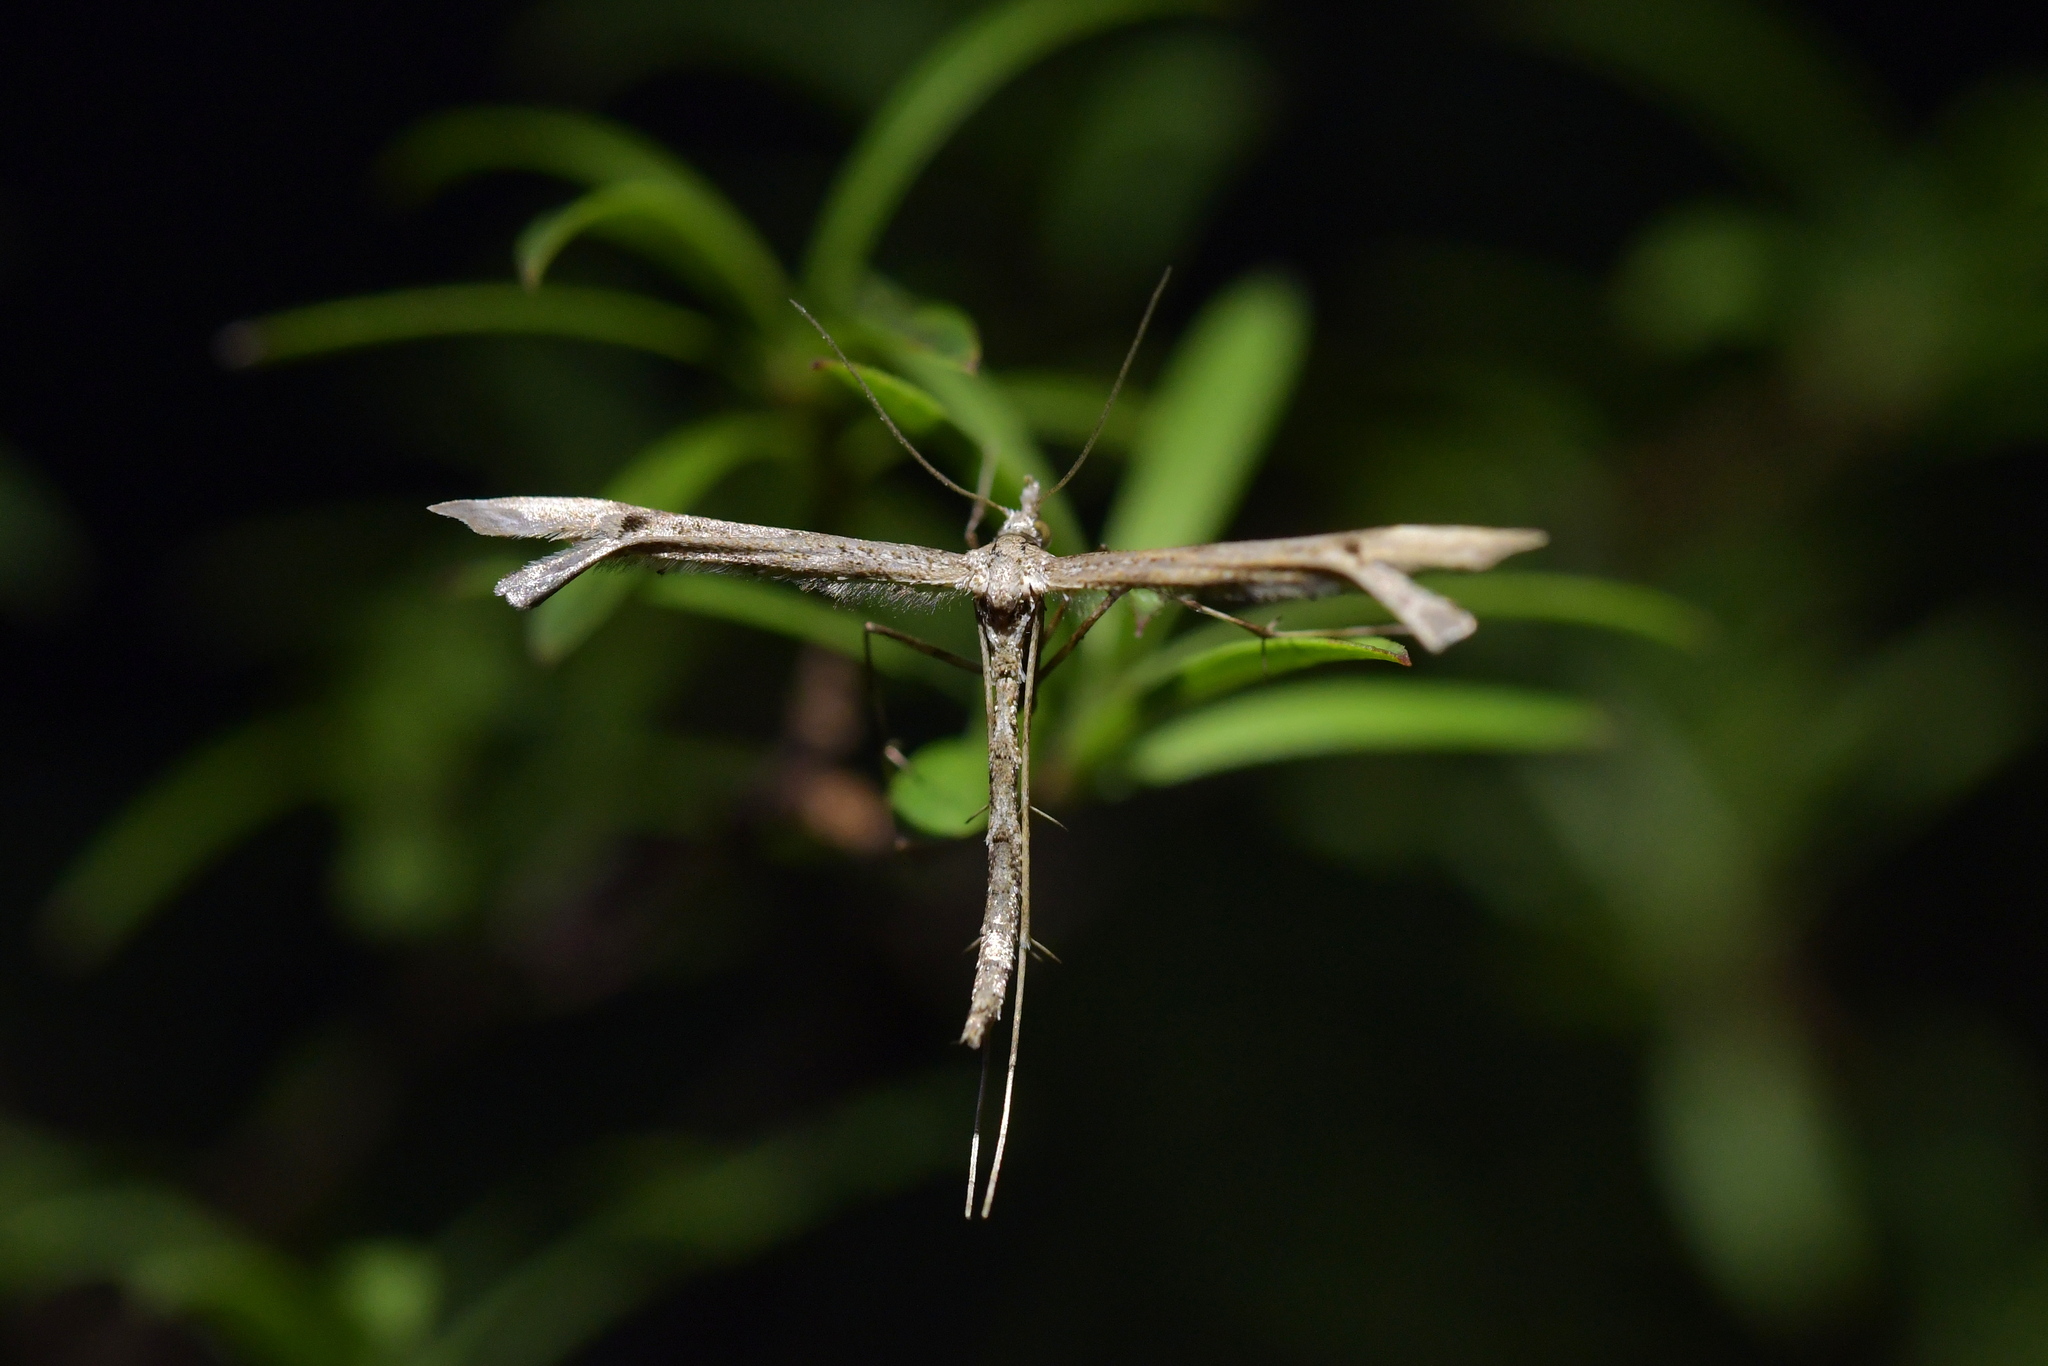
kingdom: Animalia
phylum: Arthropoda
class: Insecta
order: Lepidoptera
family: Pterophoridae
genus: Amblyptilia
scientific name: Amblyptilia repletalis
